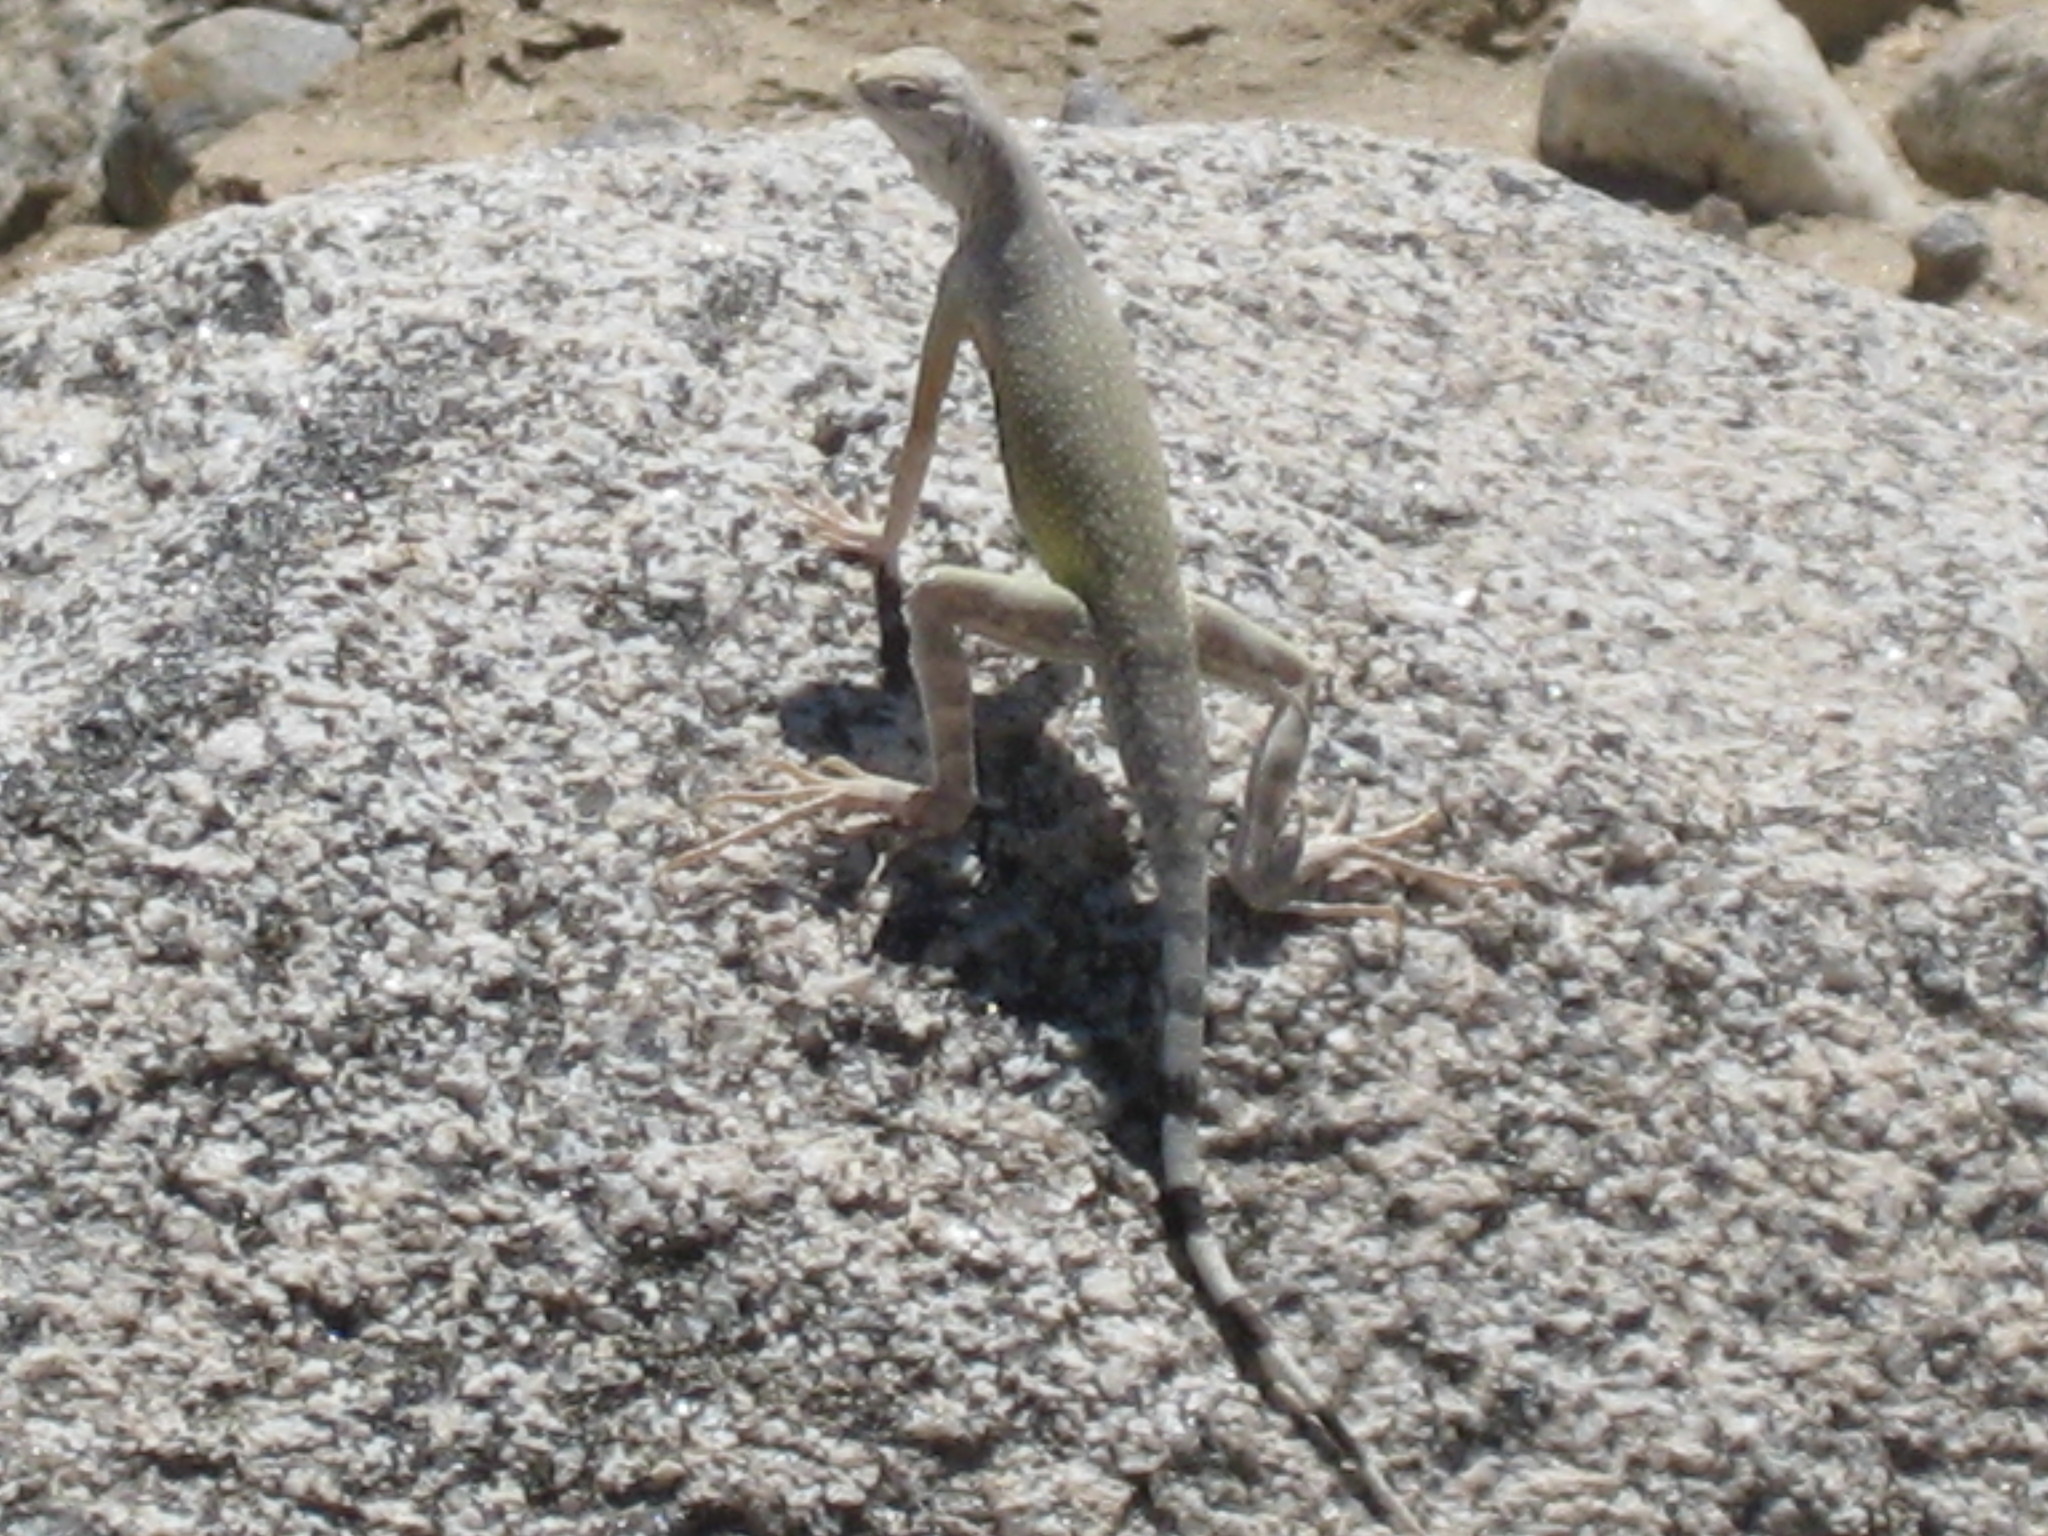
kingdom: Animalia
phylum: Chordata
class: Squamata
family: Phrynosomatidae
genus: Callisaurus
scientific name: Callisaurus draconoides
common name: Zebra-tailed lizard
